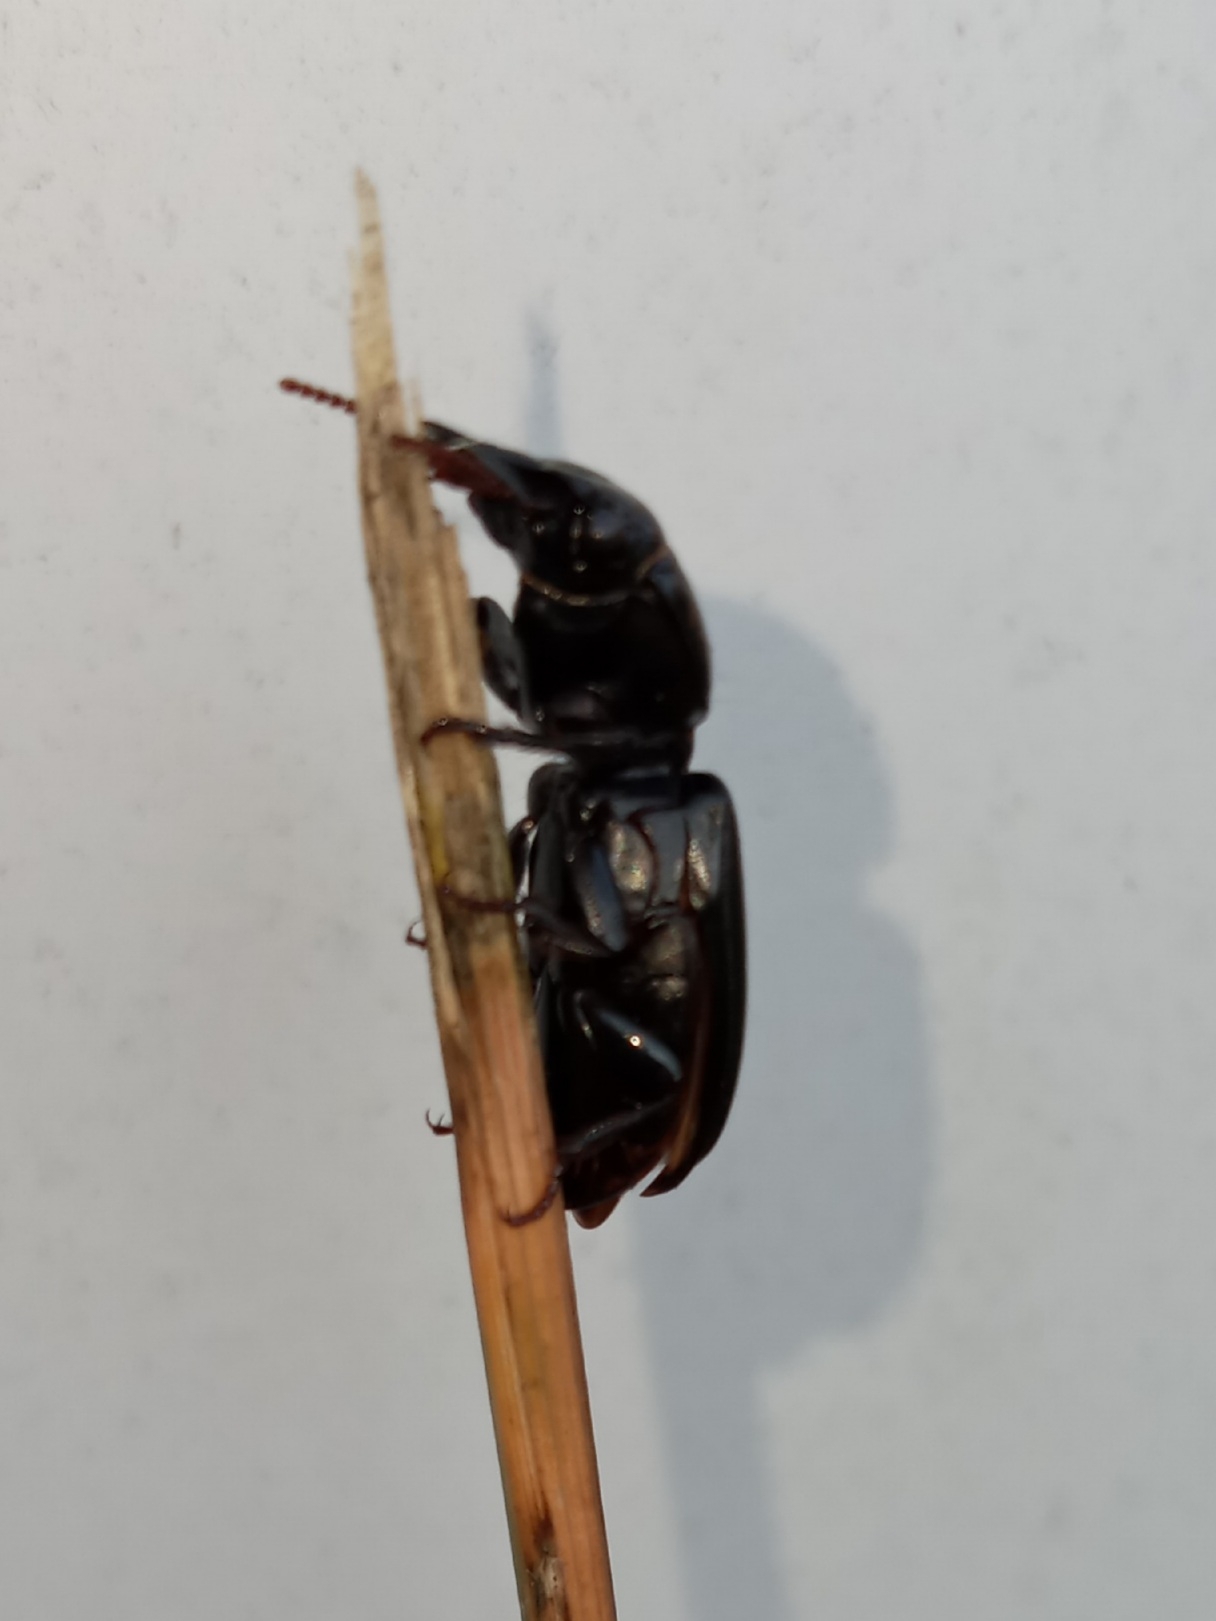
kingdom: Animalia
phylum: Arthropoda
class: Insecta
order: Coleoptera
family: Carabidae
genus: Scarites
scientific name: Scarites subterraneus
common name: Big-headed ground beetle
